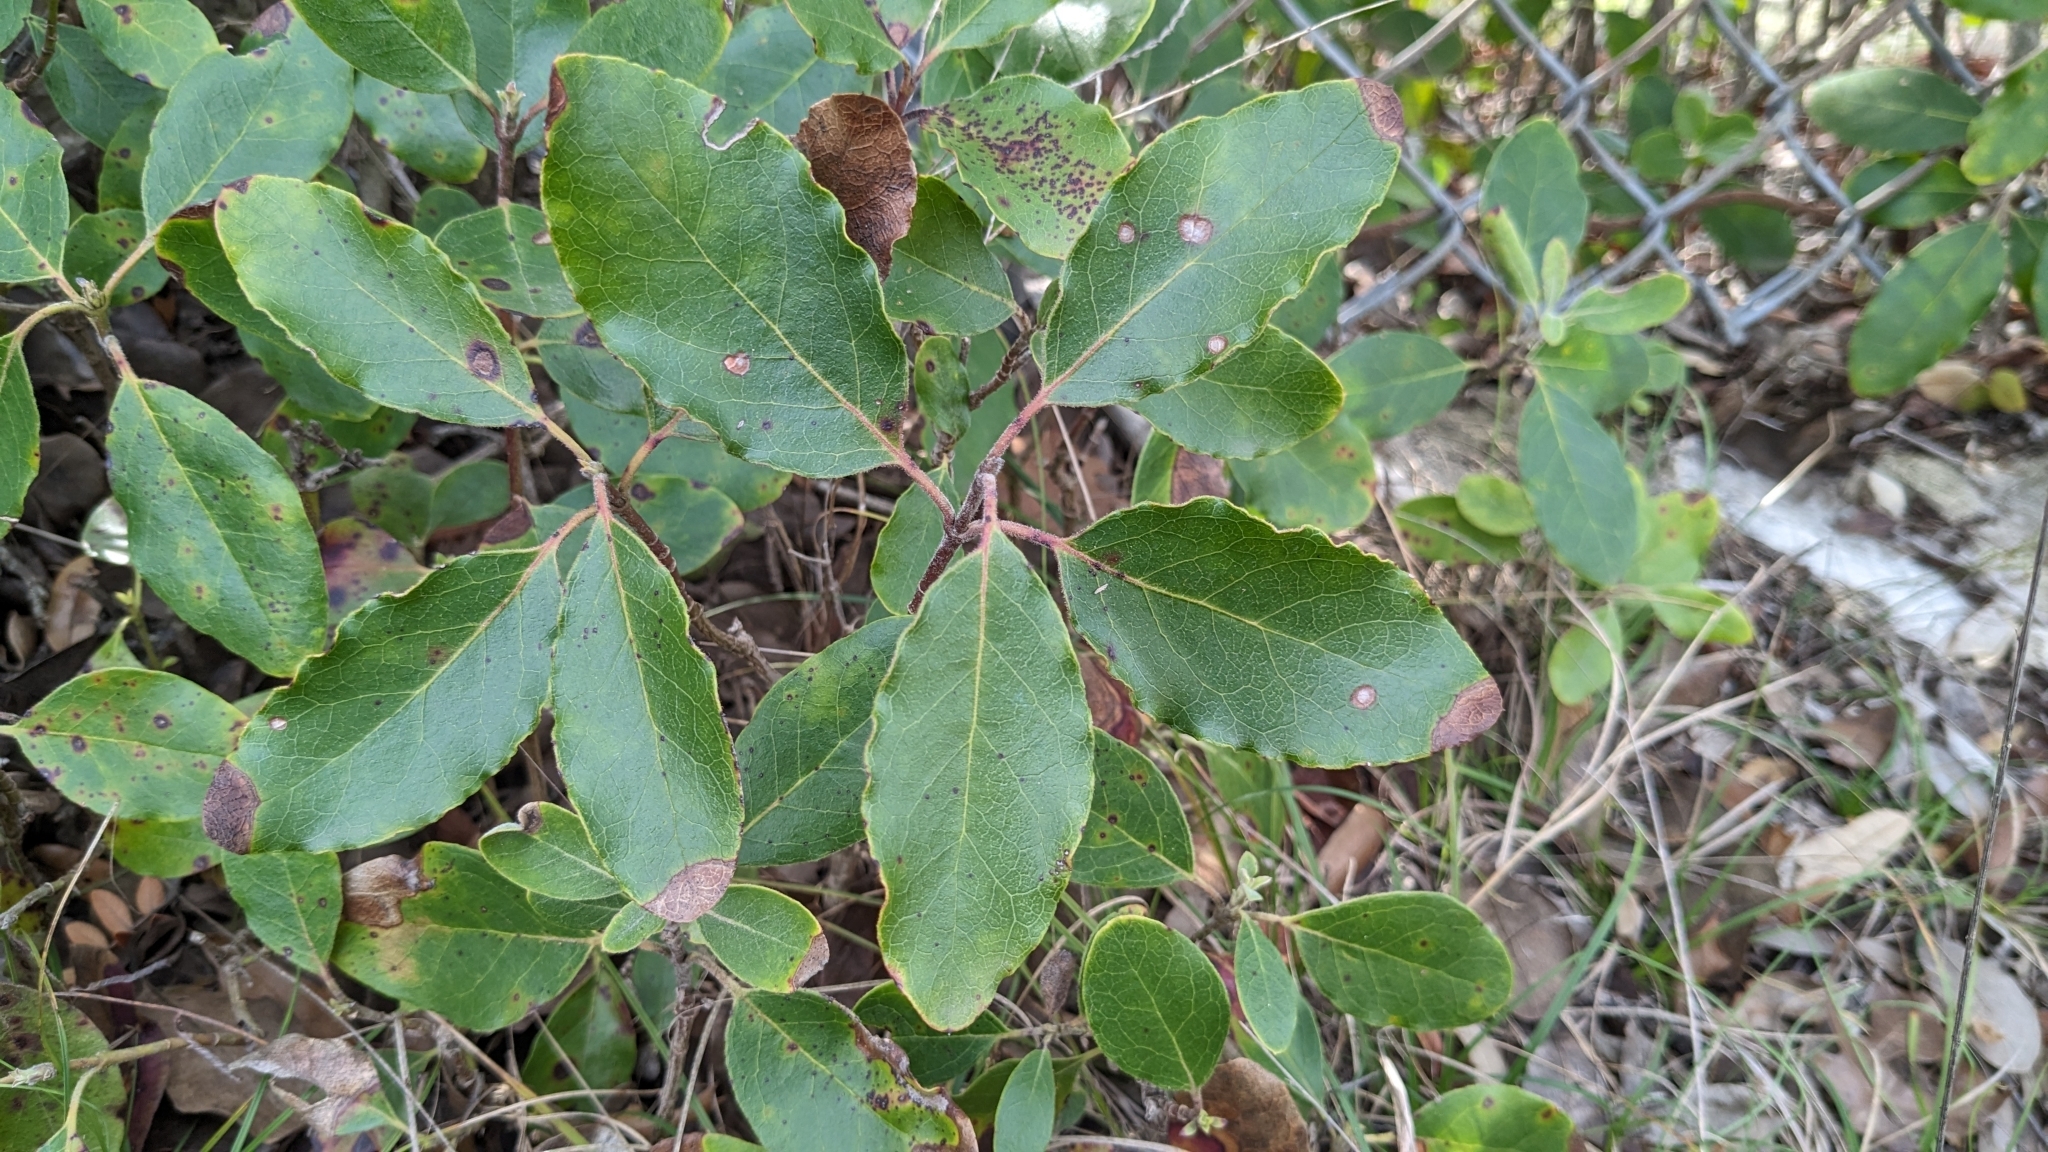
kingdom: Plantae
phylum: Tracheophyta
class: Magnoliopsida
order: Garryales
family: Garryaceae
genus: Garrya
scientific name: Garrya lindheimeri
